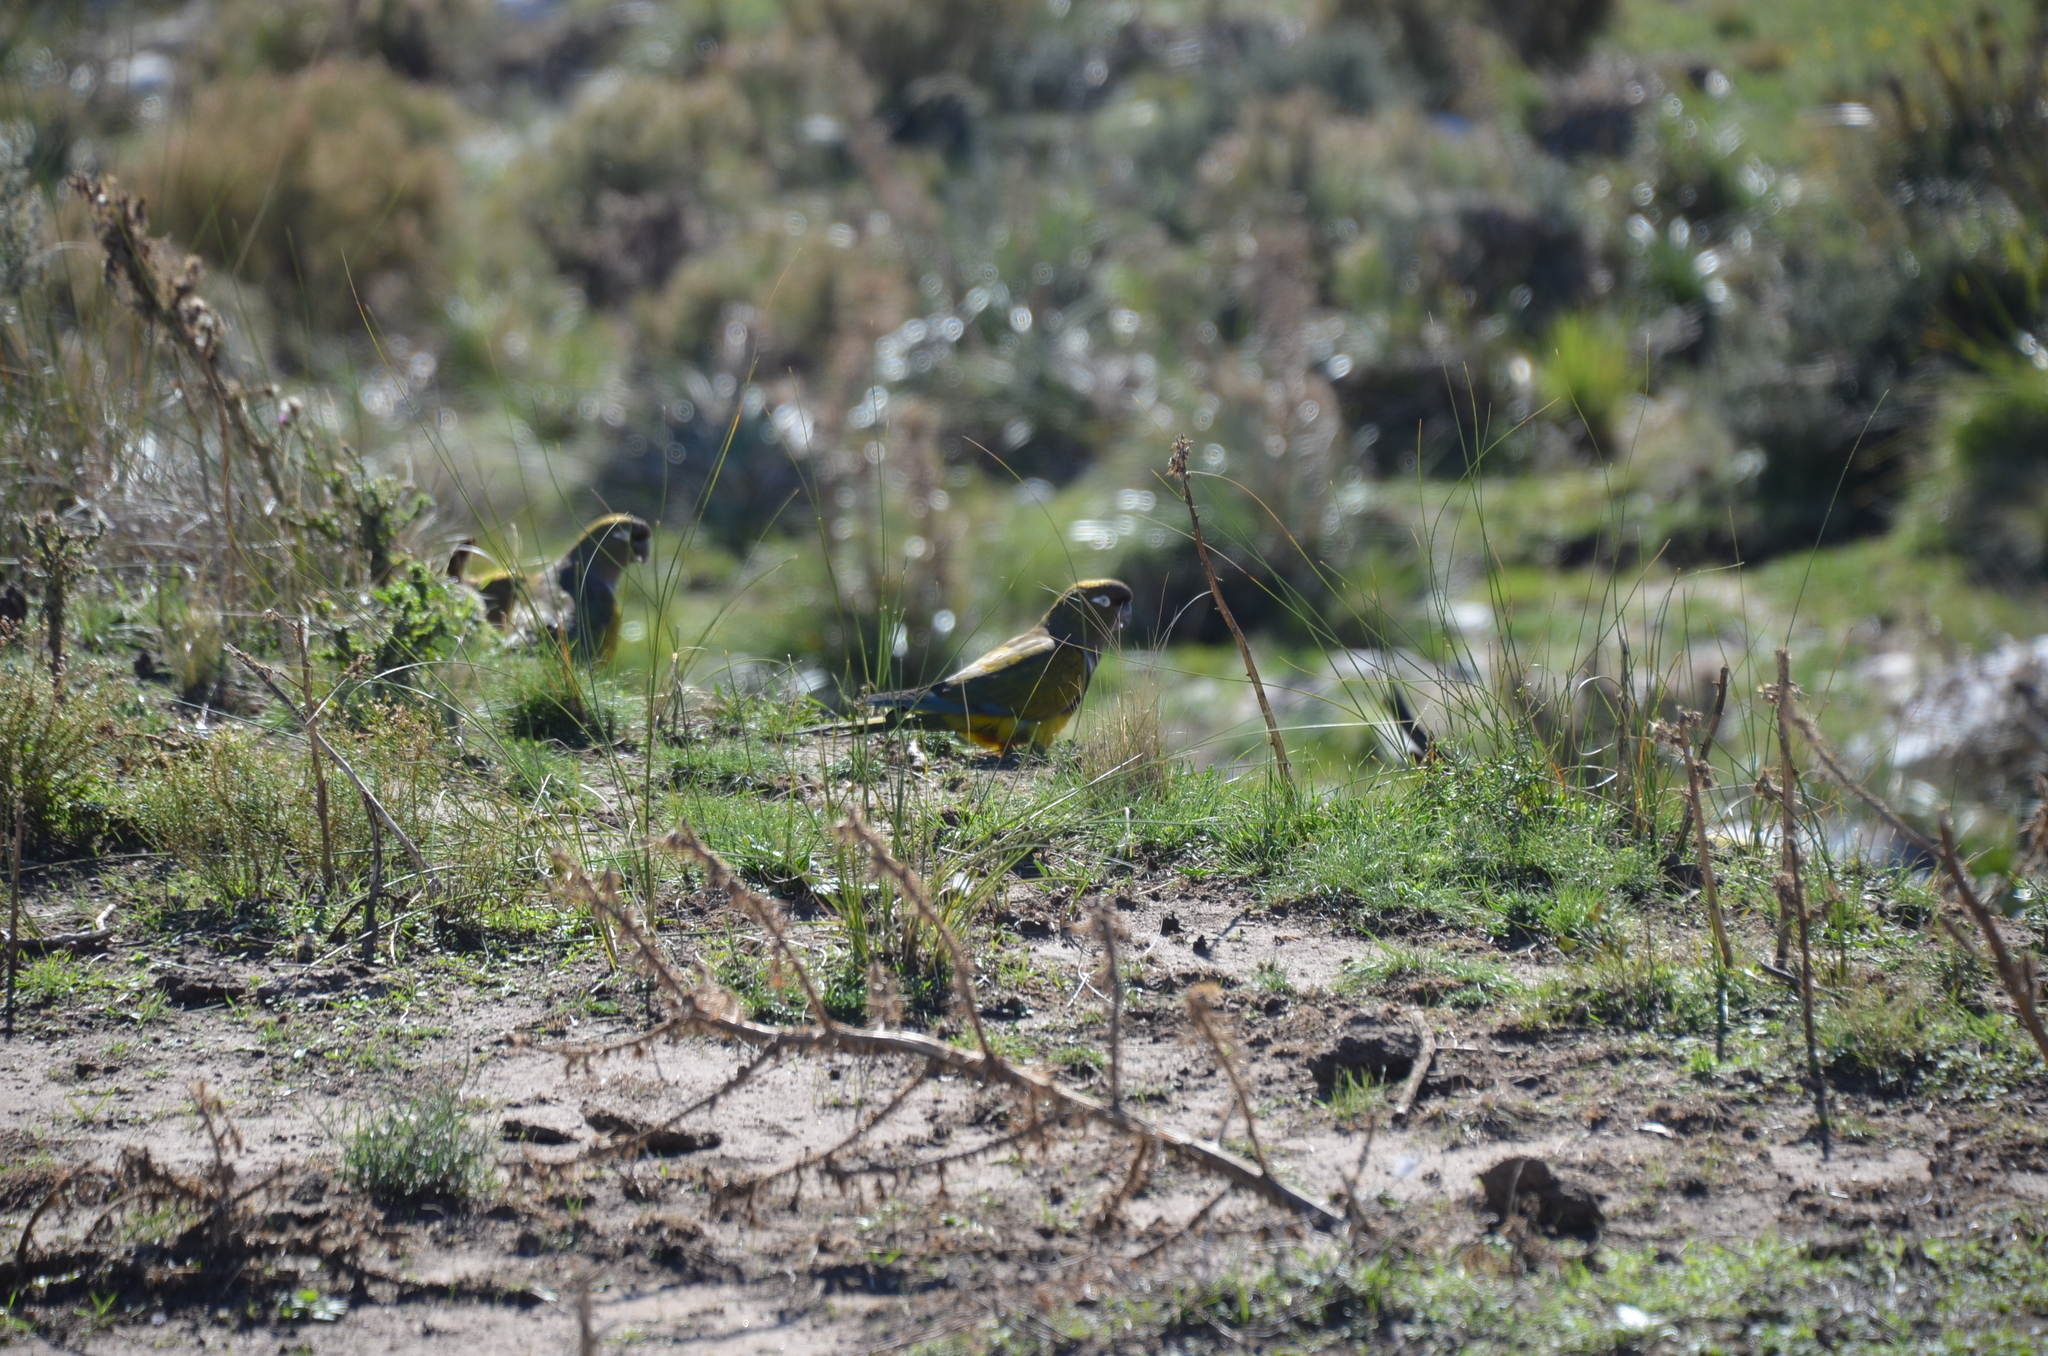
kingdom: Animalia
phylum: Chordata
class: Aves
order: Psittaciformes
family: Psittacidae
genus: Cyanoliseus
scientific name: Cyanoliseus patagonus
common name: Burrowing parrot
